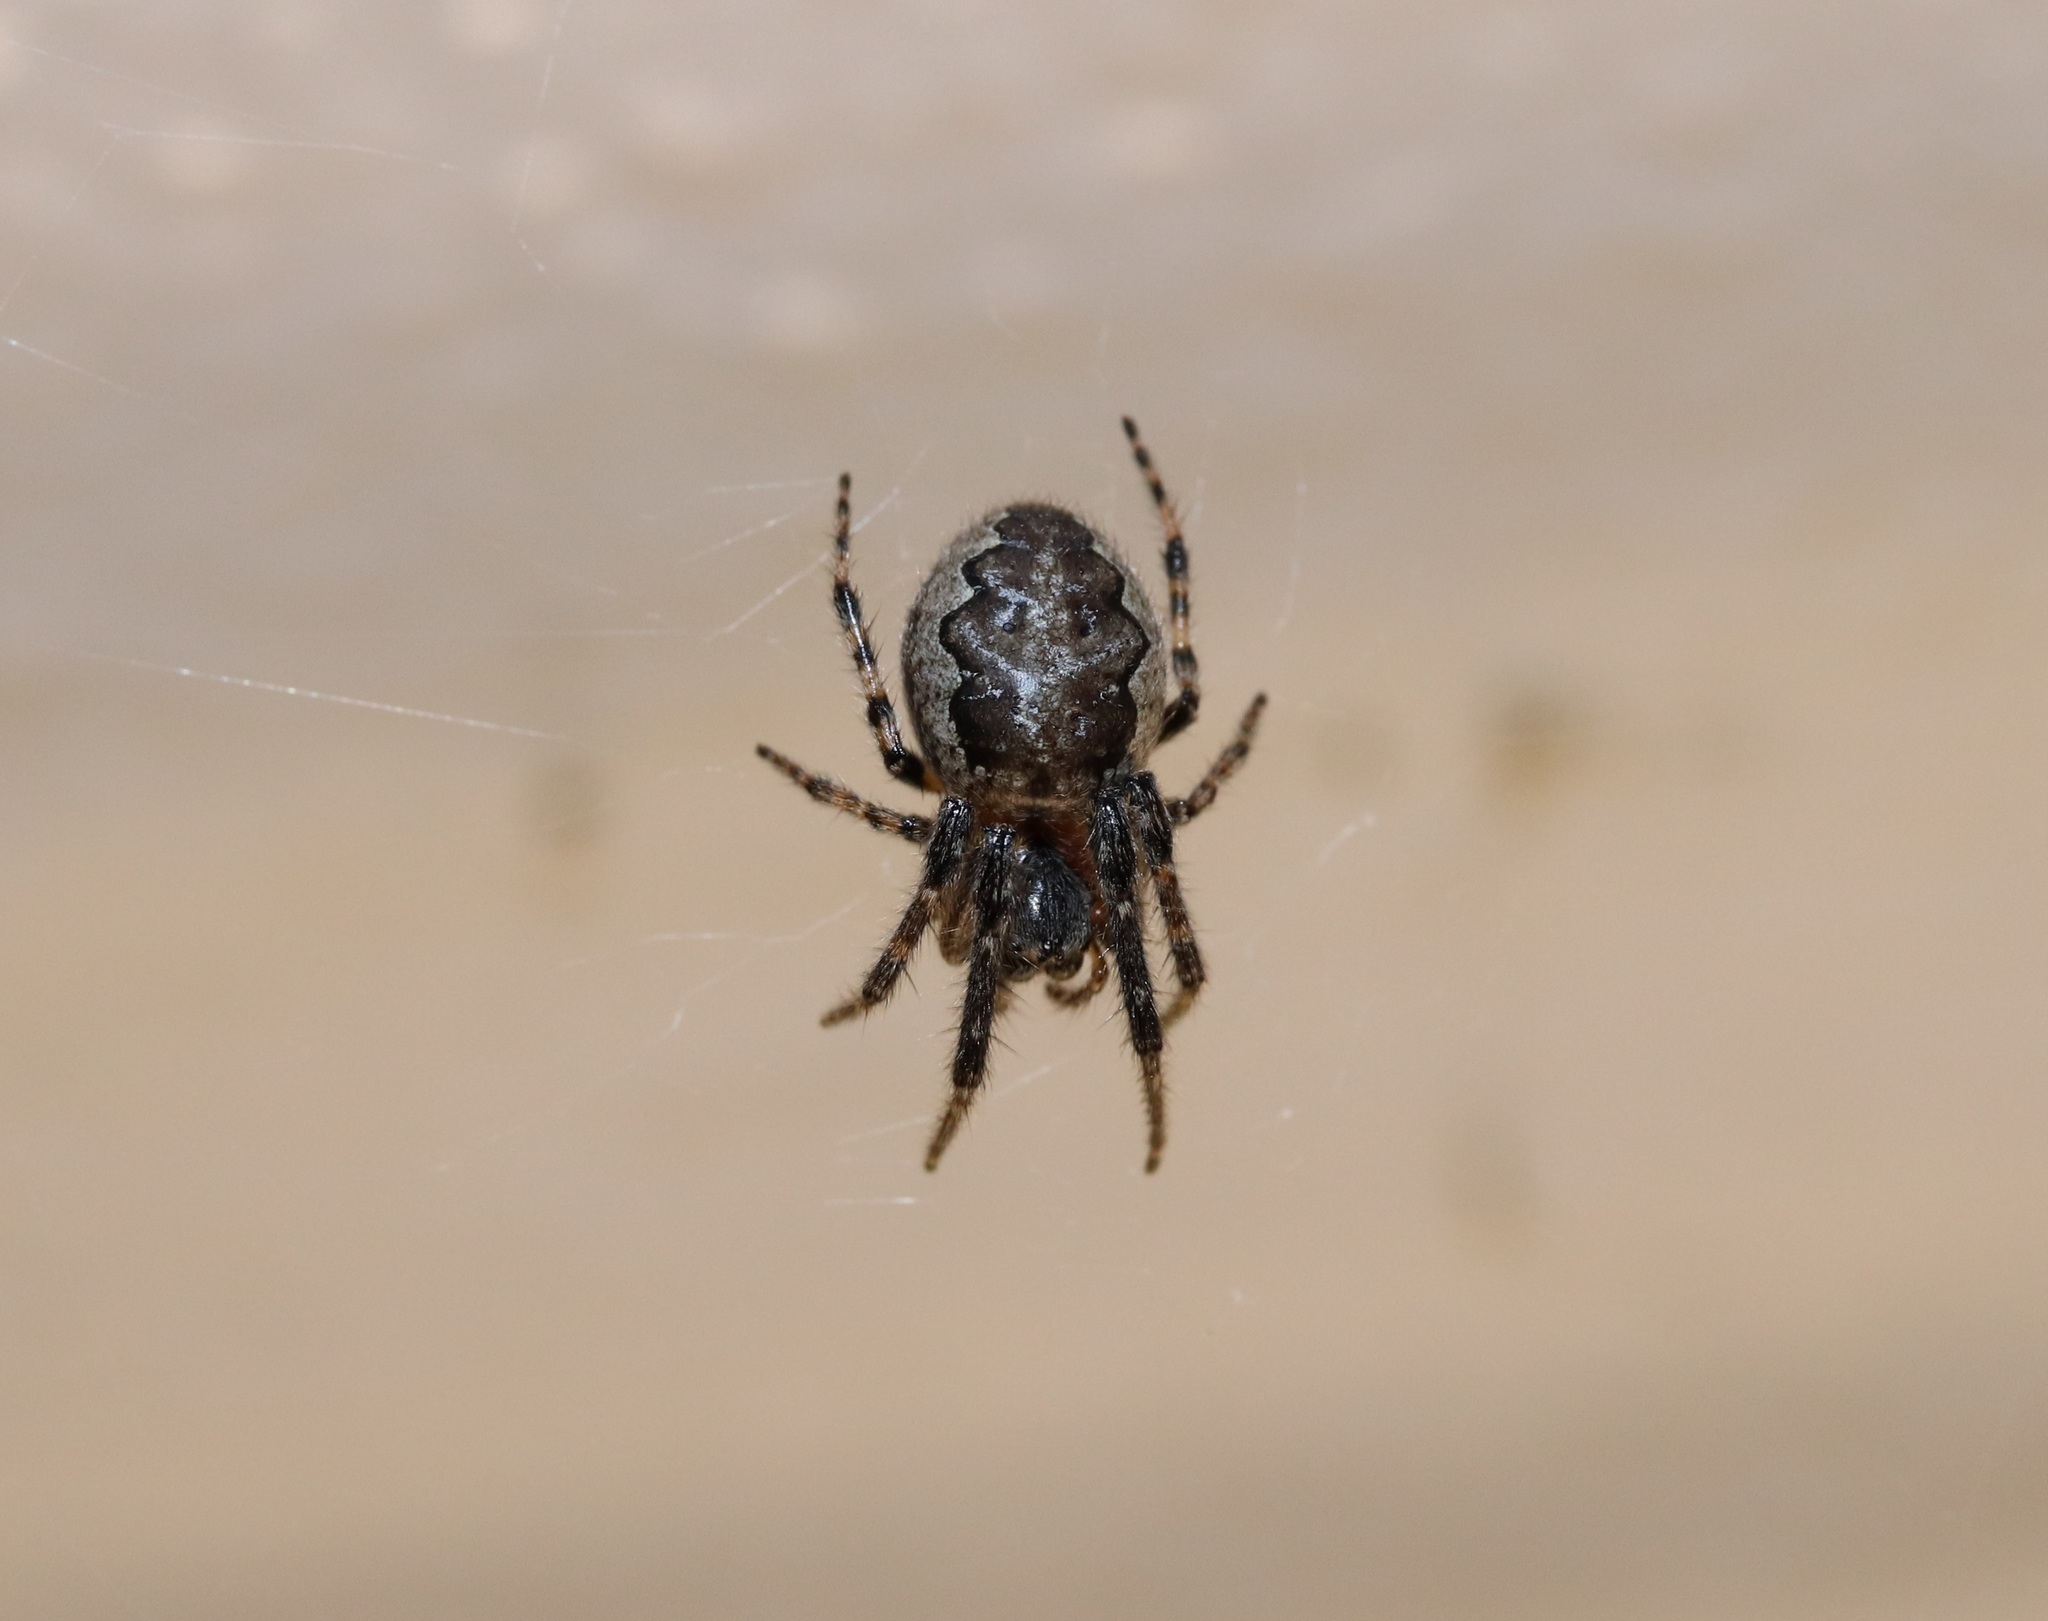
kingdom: Animalia
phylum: Arthropoda
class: Arachnida
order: Araneae
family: Araneidae
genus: Yaginumia
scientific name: Yaginumia sia
